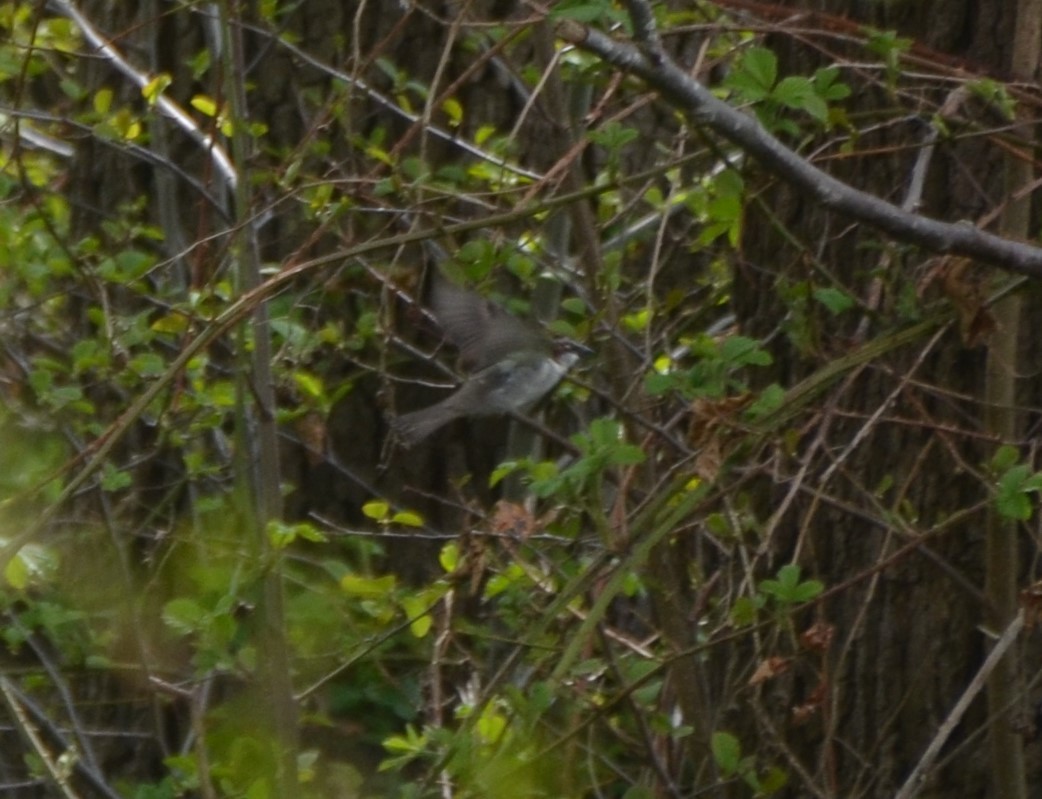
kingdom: Animalia
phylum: Chordata
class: Aves
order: Passeriformes
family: Passeridae
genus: Passer
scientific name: Passer domesticus
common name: House sparrow
